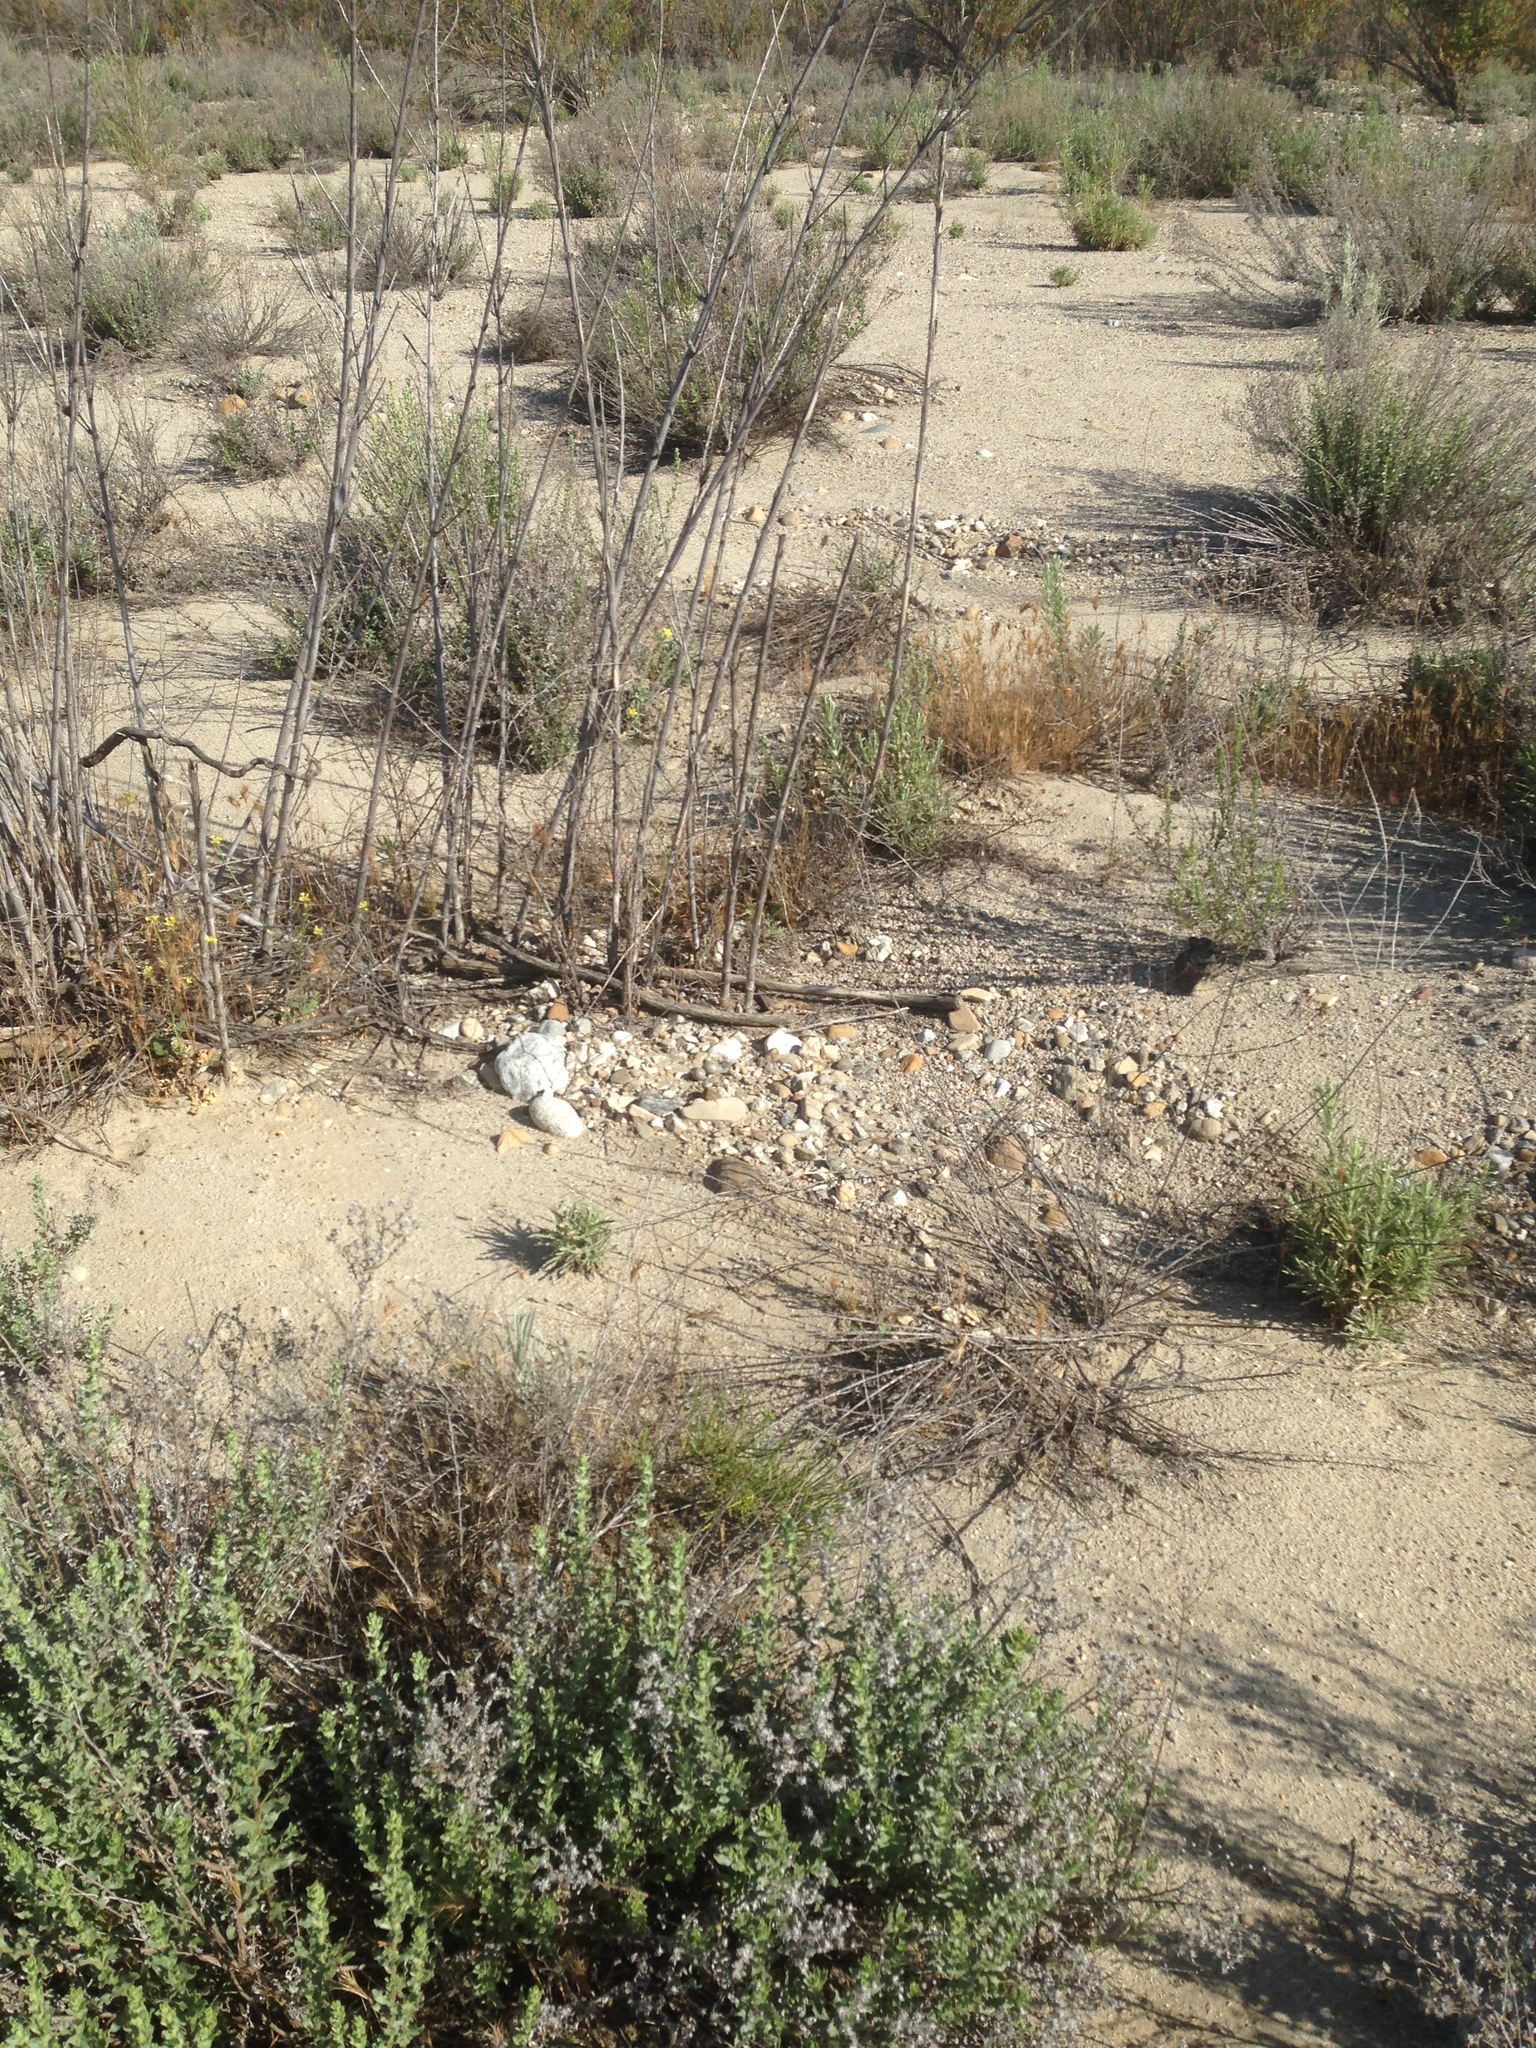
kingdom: Animalia
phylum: Chordata
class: Aves
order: Caprimulgiformes
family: Caprimulgidae
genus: Chordeiles
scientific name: Chordeiles acutipennis
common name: Lesser nighthawk
